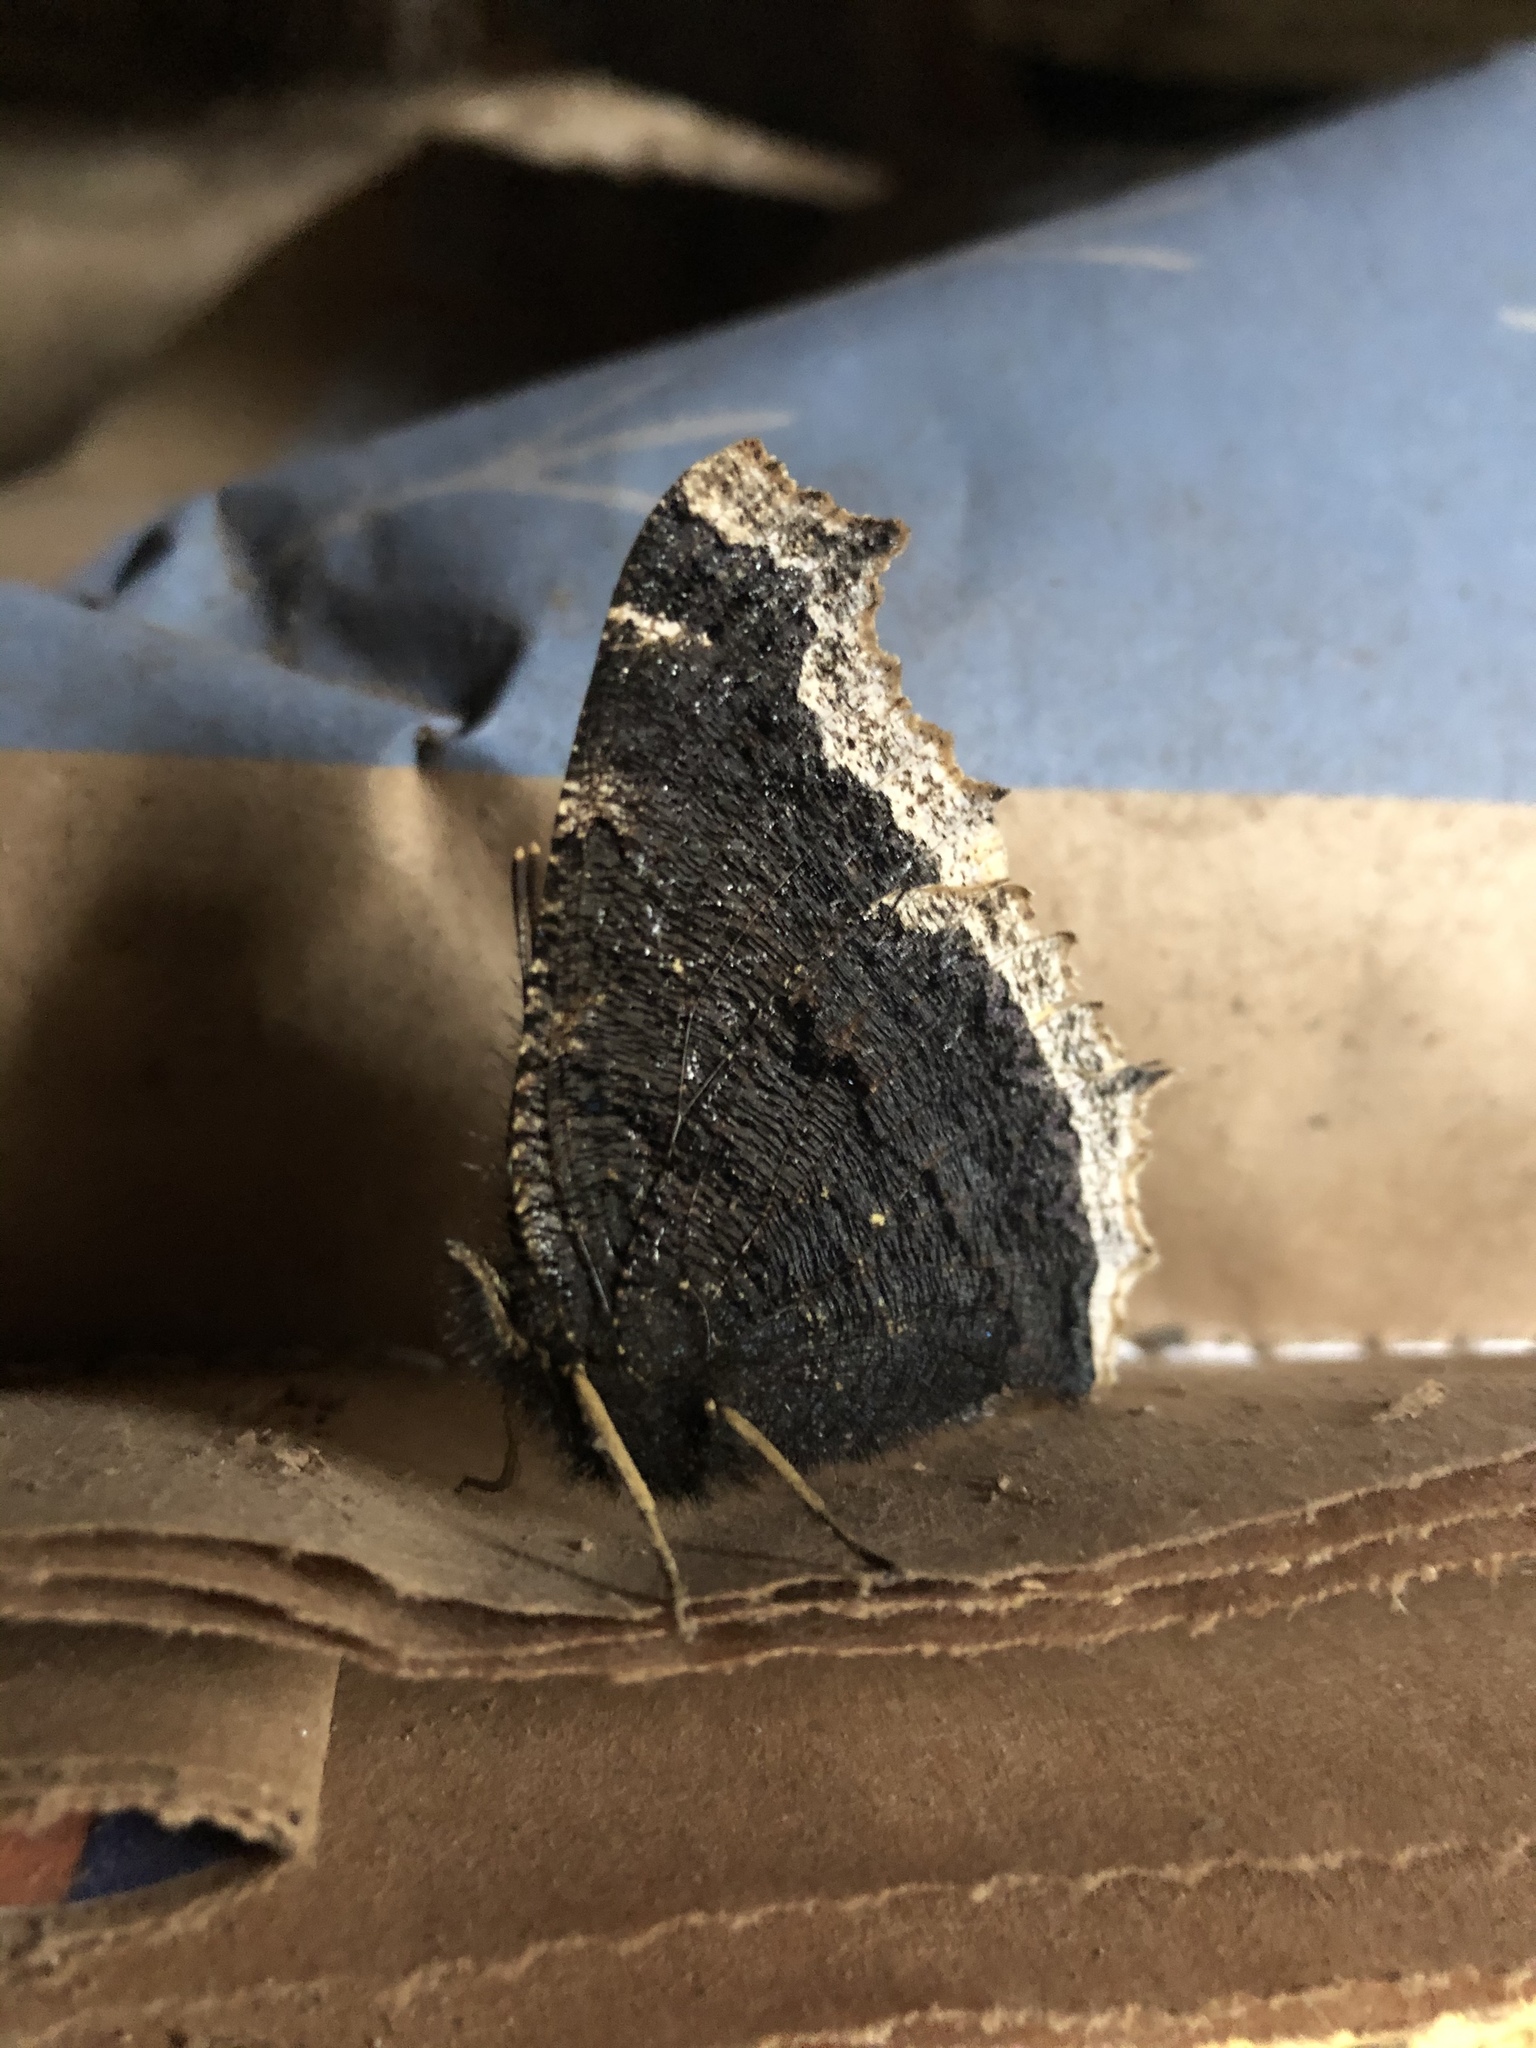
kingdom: Animalia
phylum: Arthropoda
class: Insecta
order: Lepidoptera
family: Nymphalidae
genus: Nymphalis
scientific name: Nymphalis antiopa
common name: Camberwell beauty
